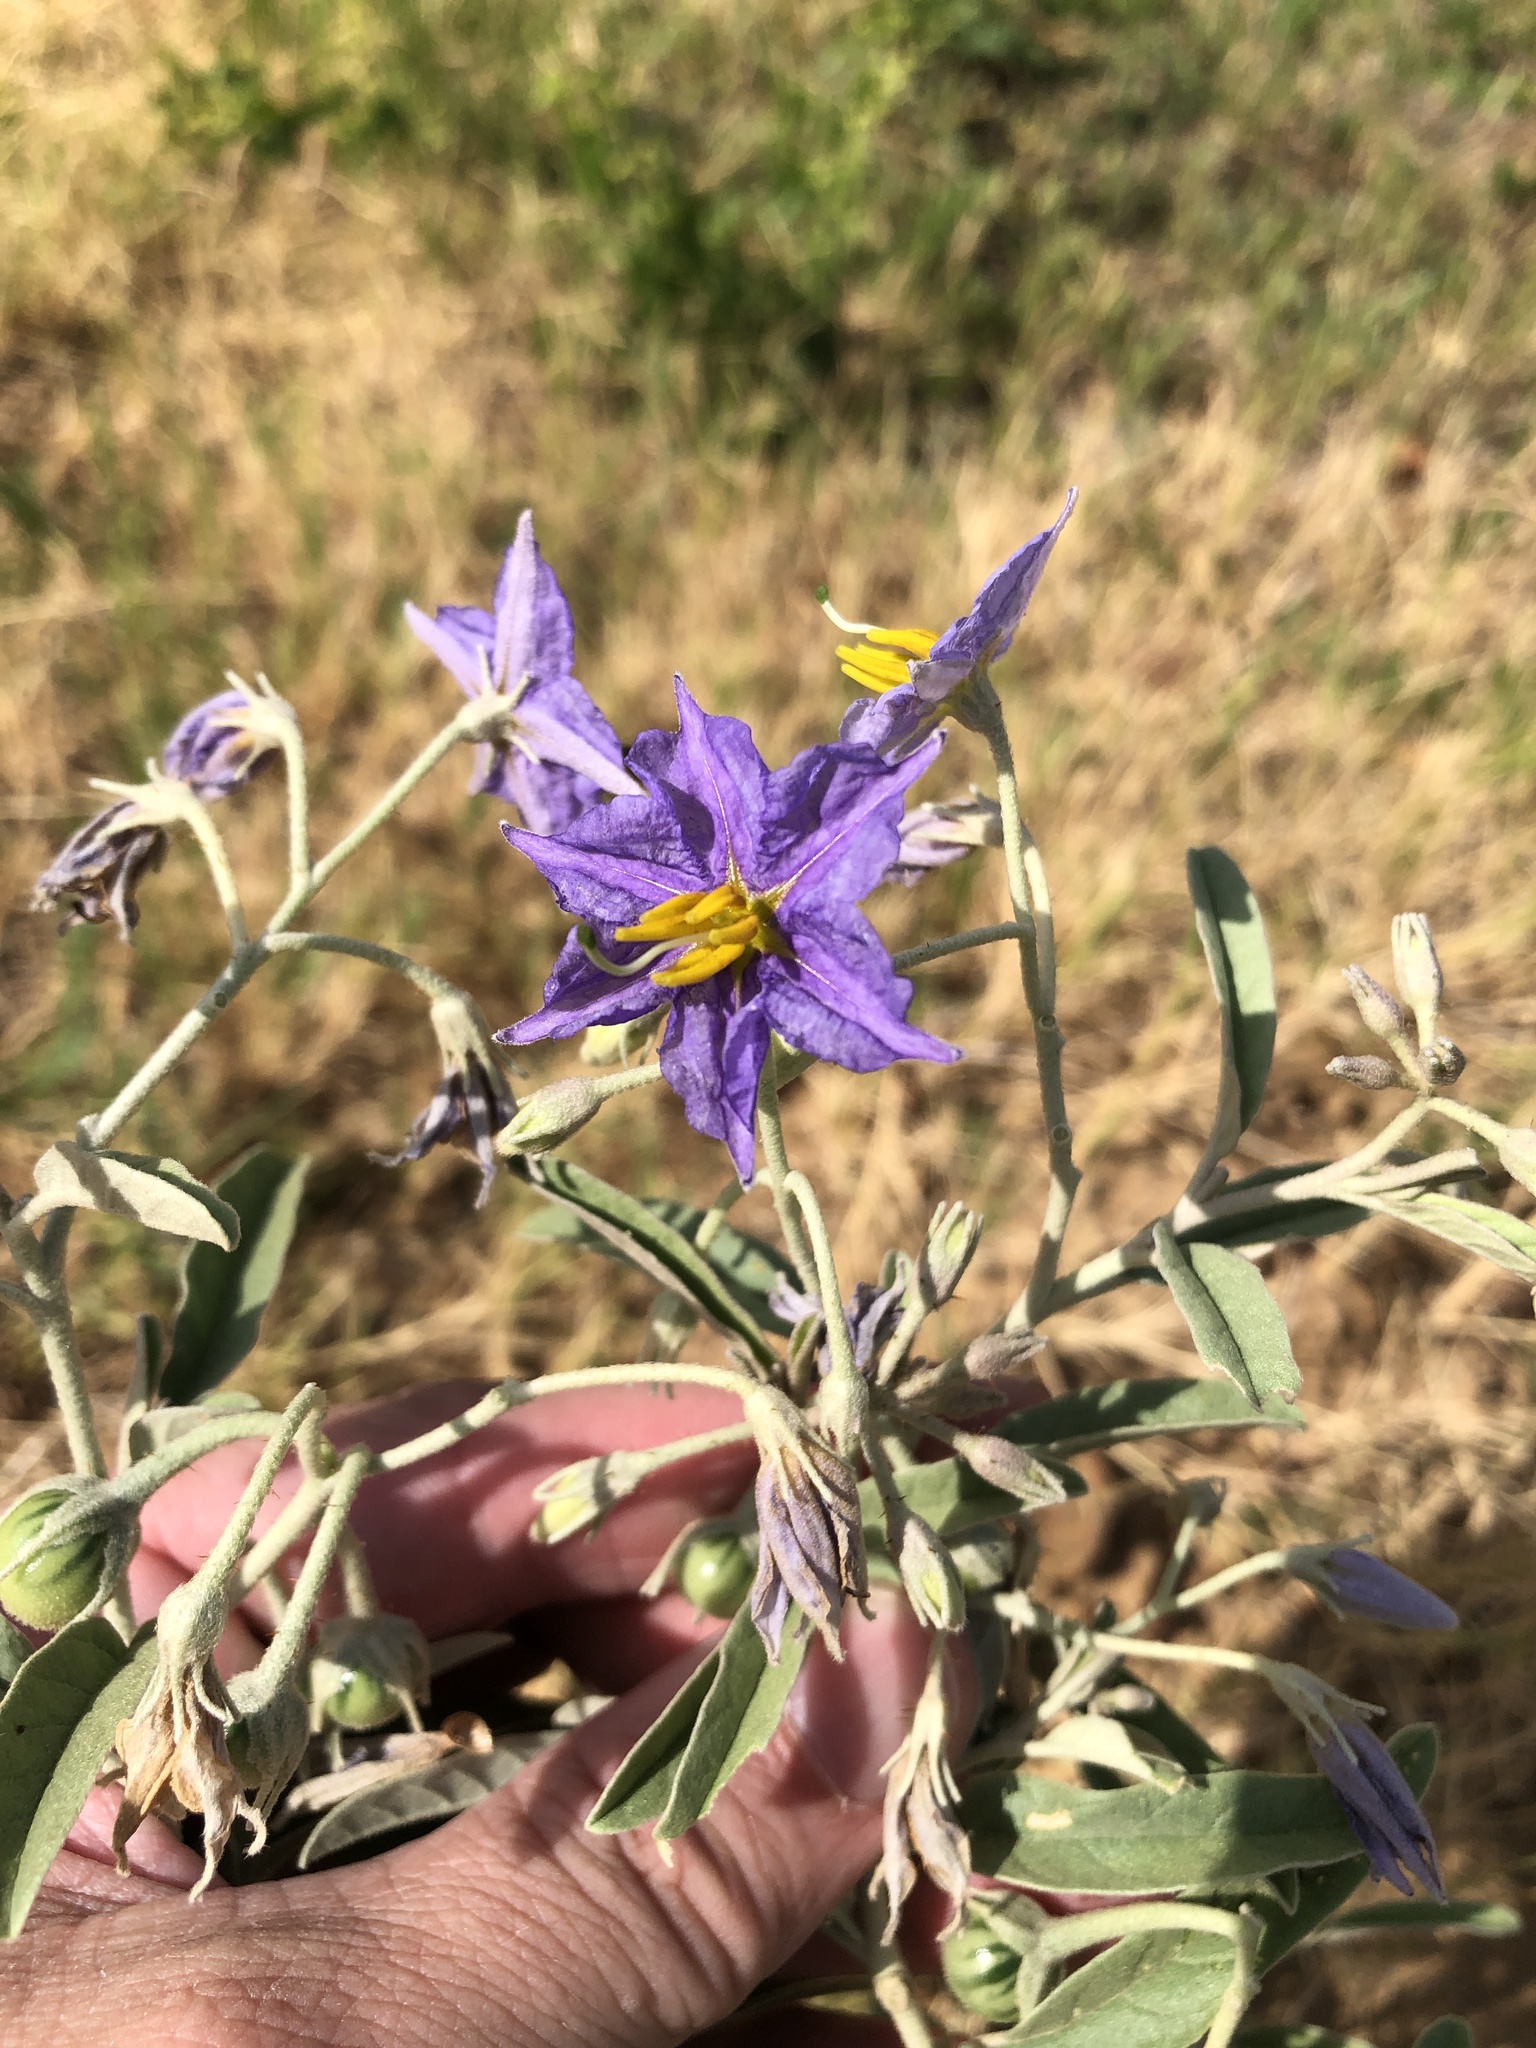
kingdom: Plantae
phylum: Tracheophyta
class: Magnoliopsida
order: Solanales
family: Solanaceae
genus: Solanum
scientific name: Solanum elaeagnifolium
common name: Silverleaf nightshade
